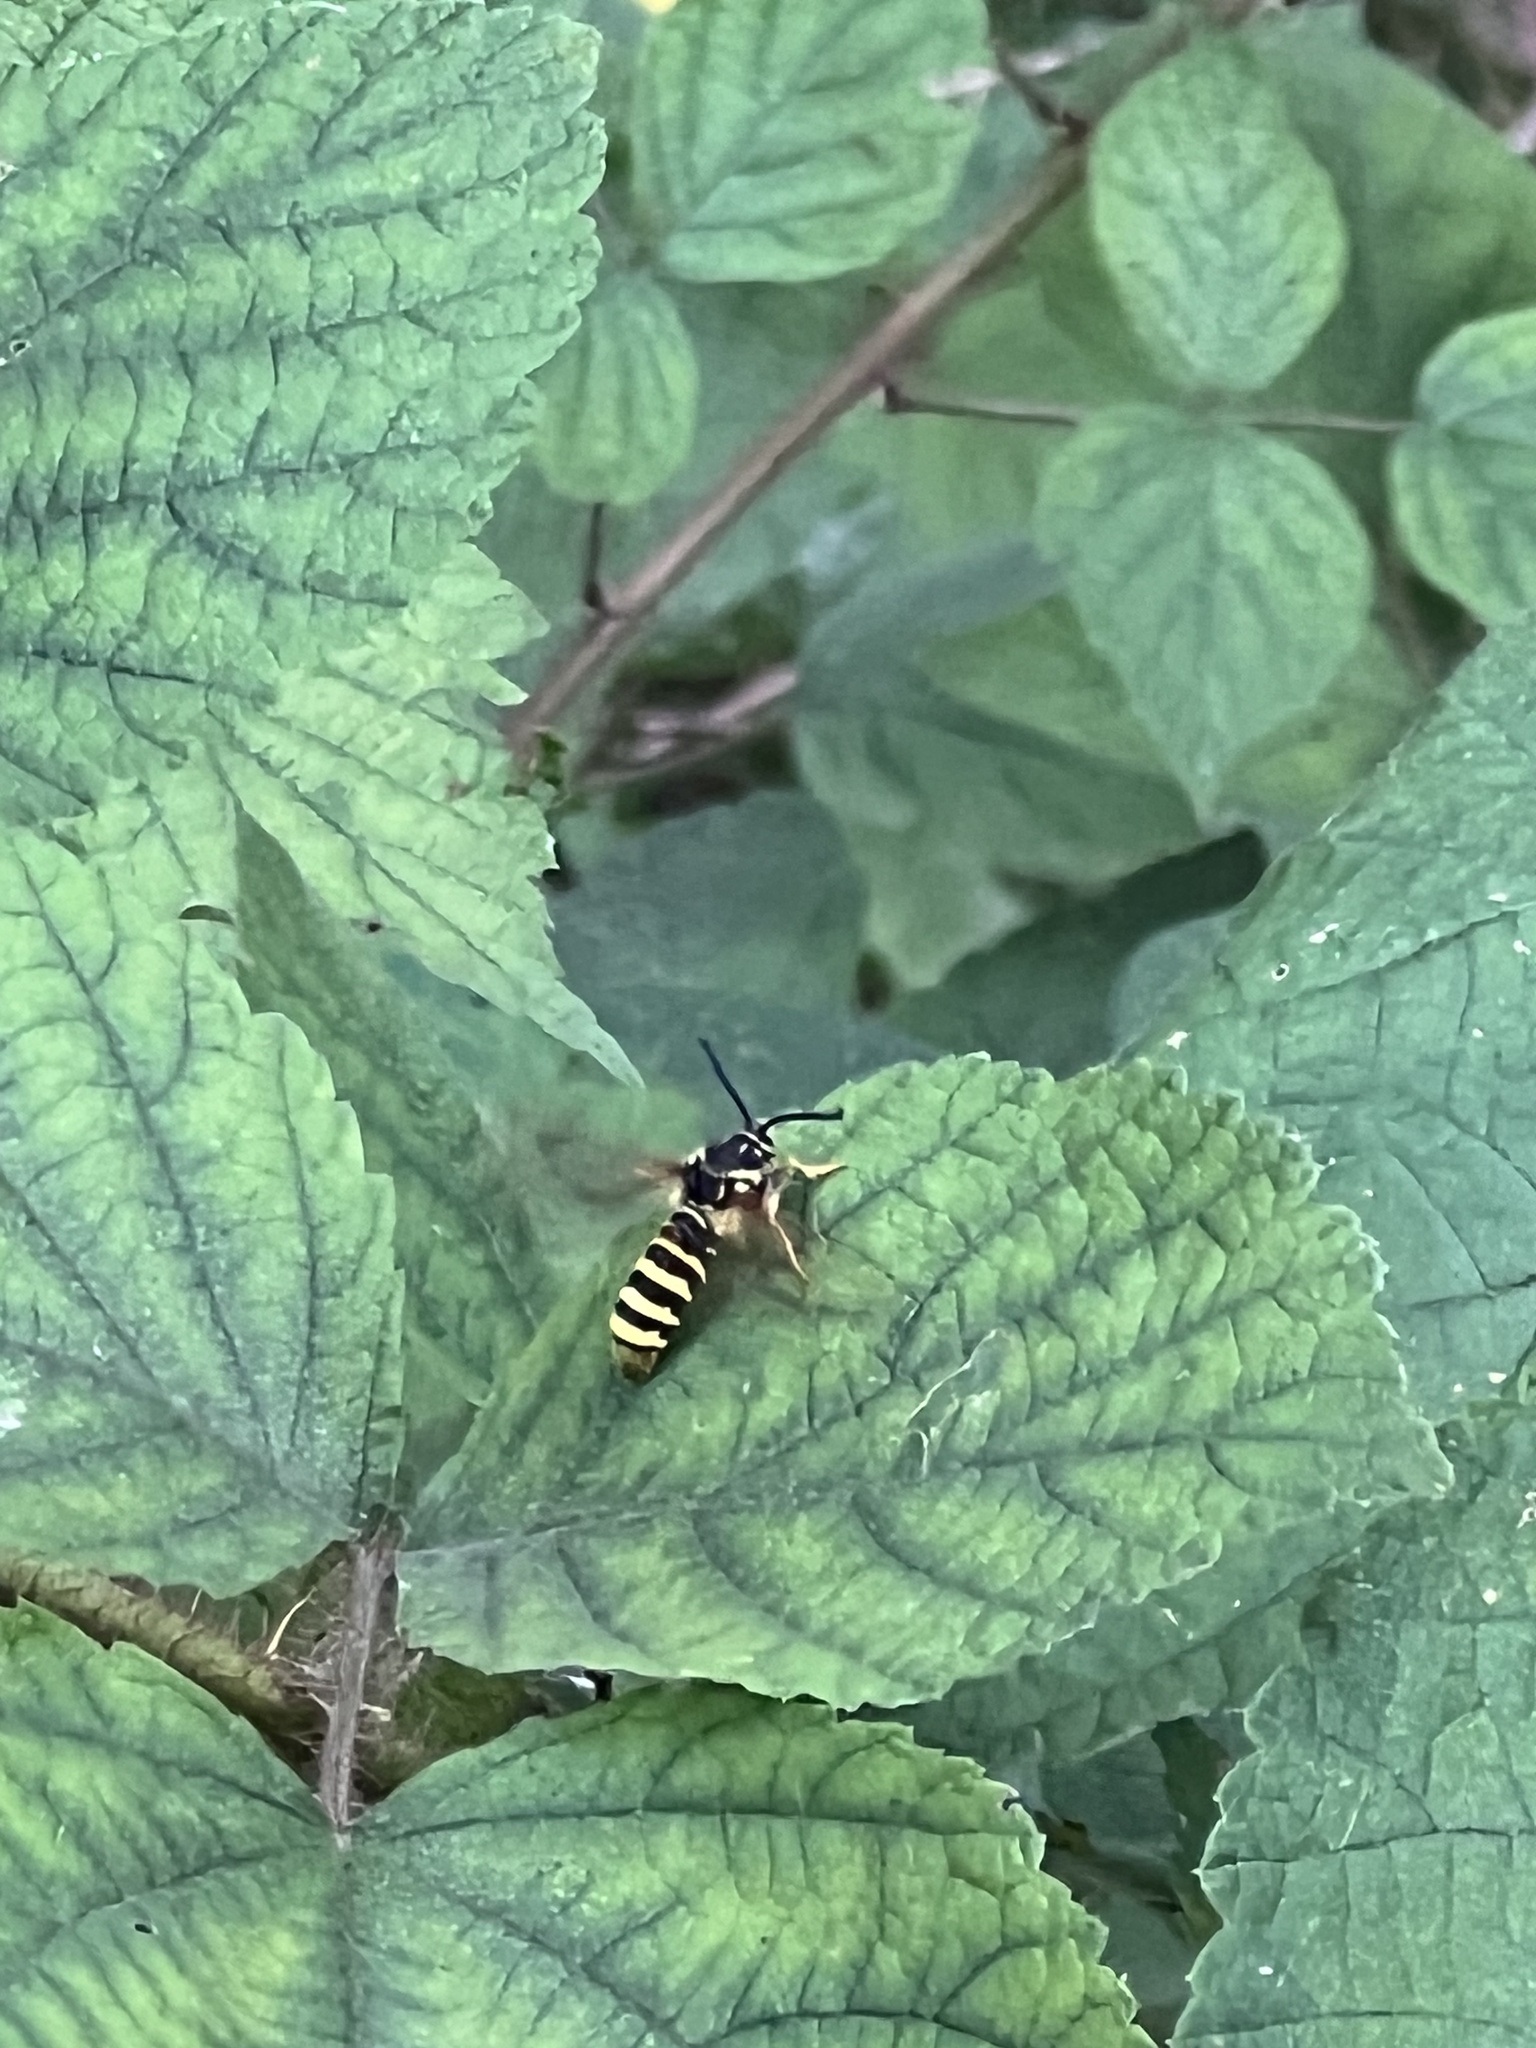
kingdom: Animalia
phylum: Arthropoda
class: Insecta
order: Lepidoptera
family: Sesiidae
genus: Pennisetia
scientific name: Pennisetia marginatum
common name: Raspberry crown borer
